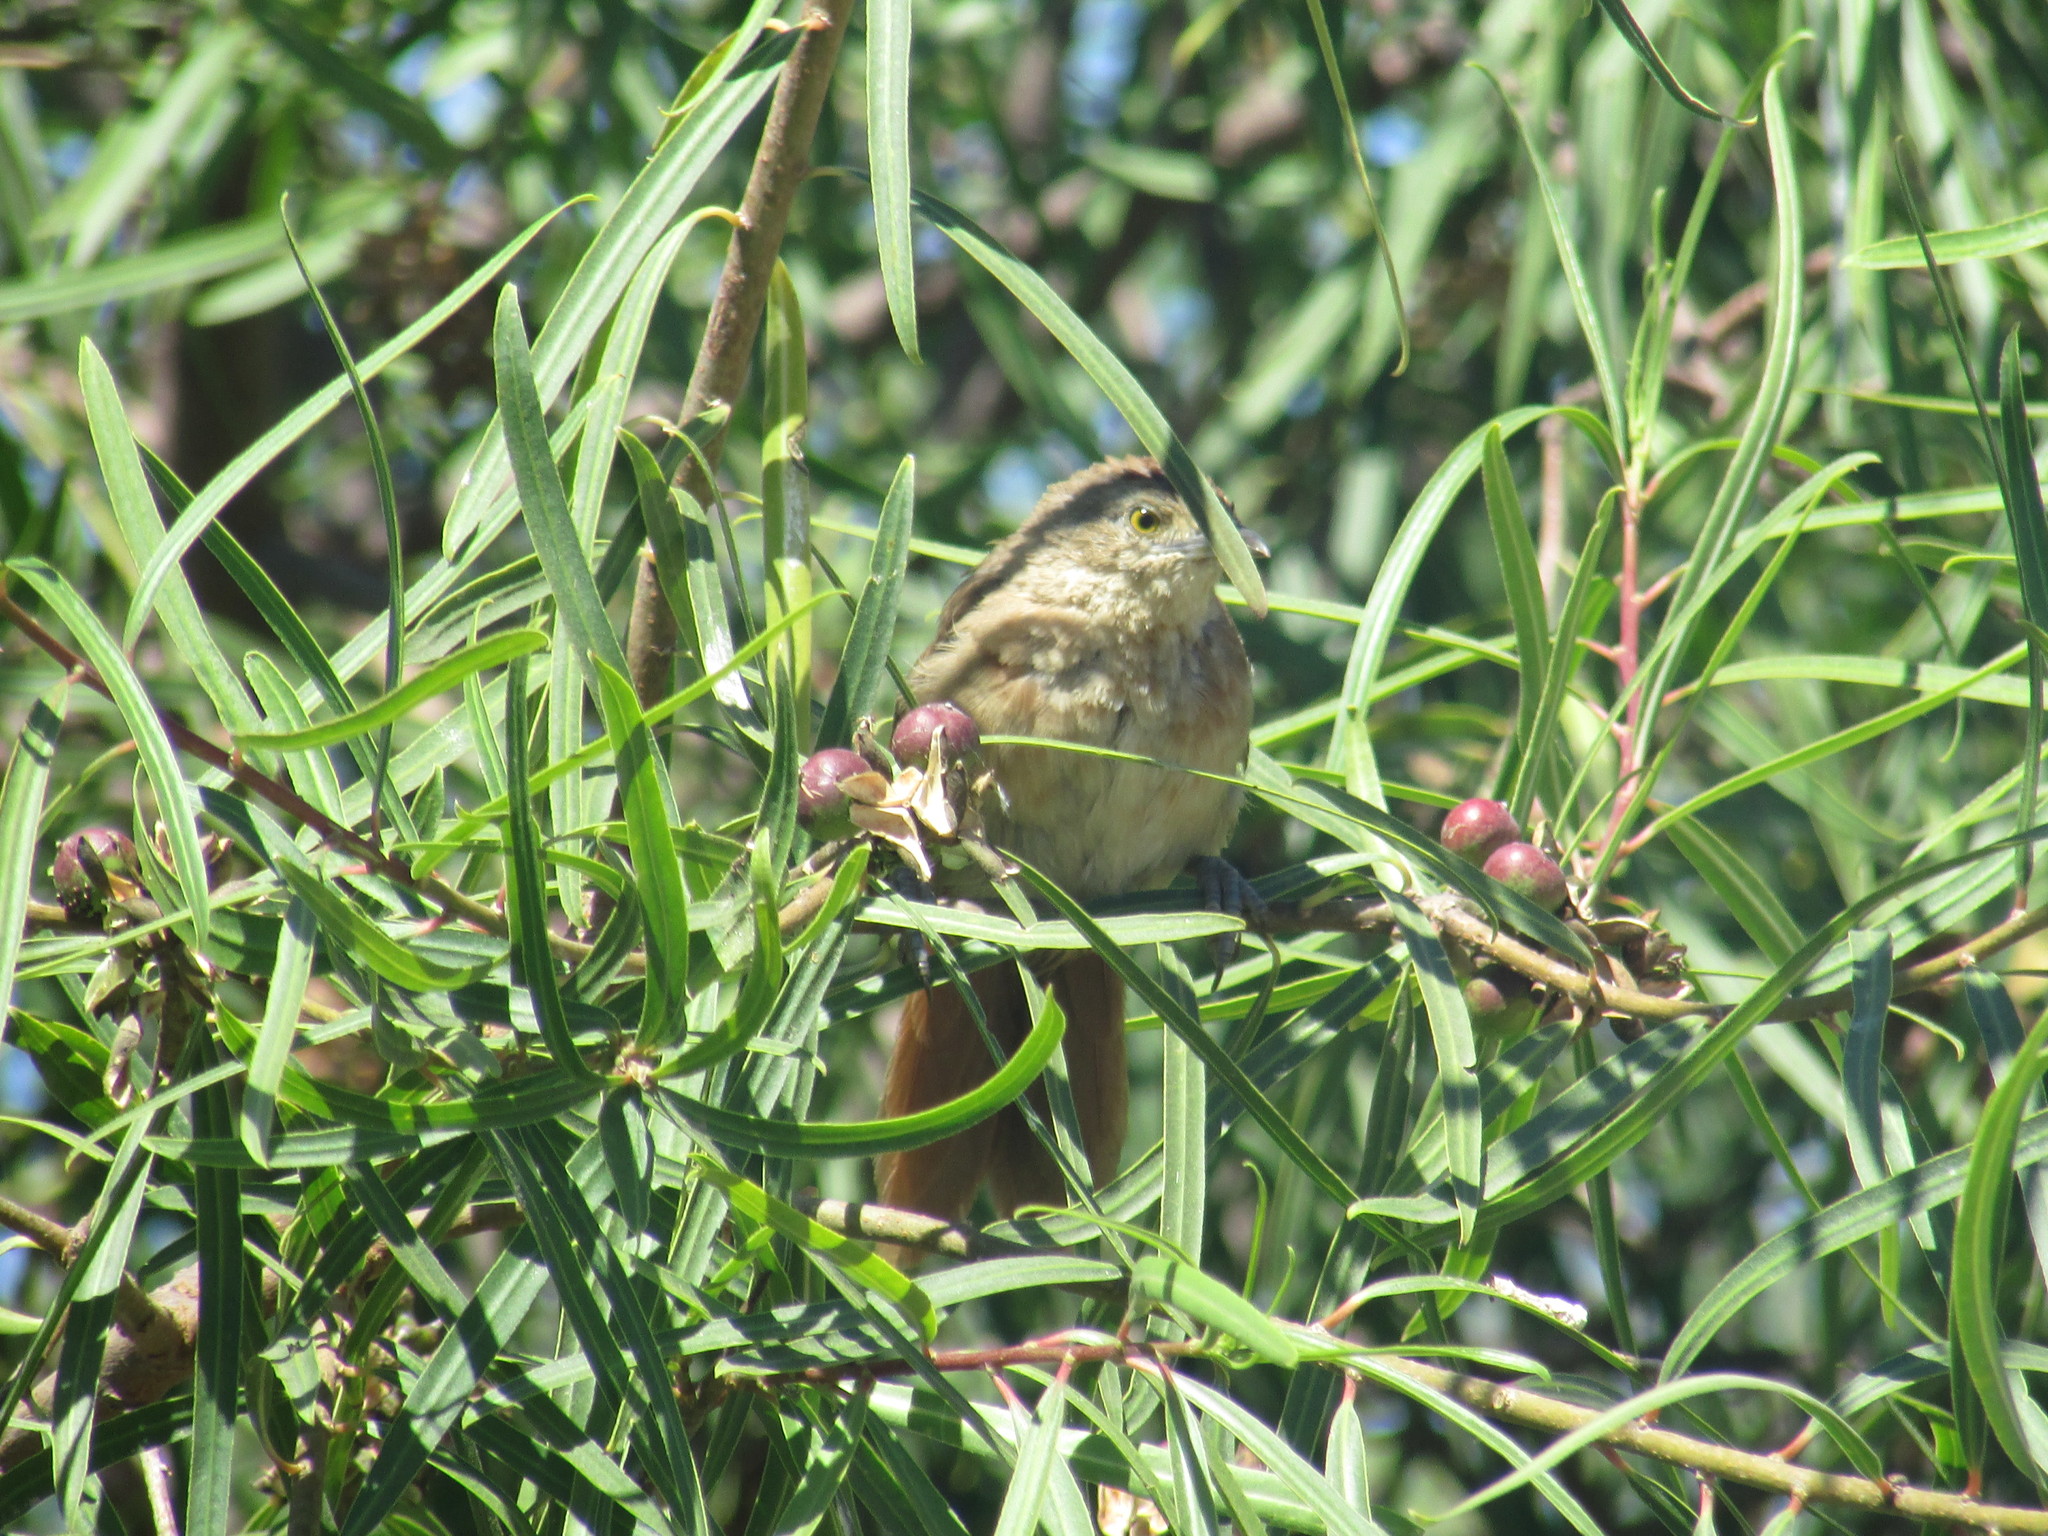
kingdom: Animalia
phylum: Chordata
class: Aves
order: Passeriformes
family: Furnariidae
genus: Phacellodomus
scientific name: Phacellodomus striaticollis
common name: Freckle-breasted thornbird
